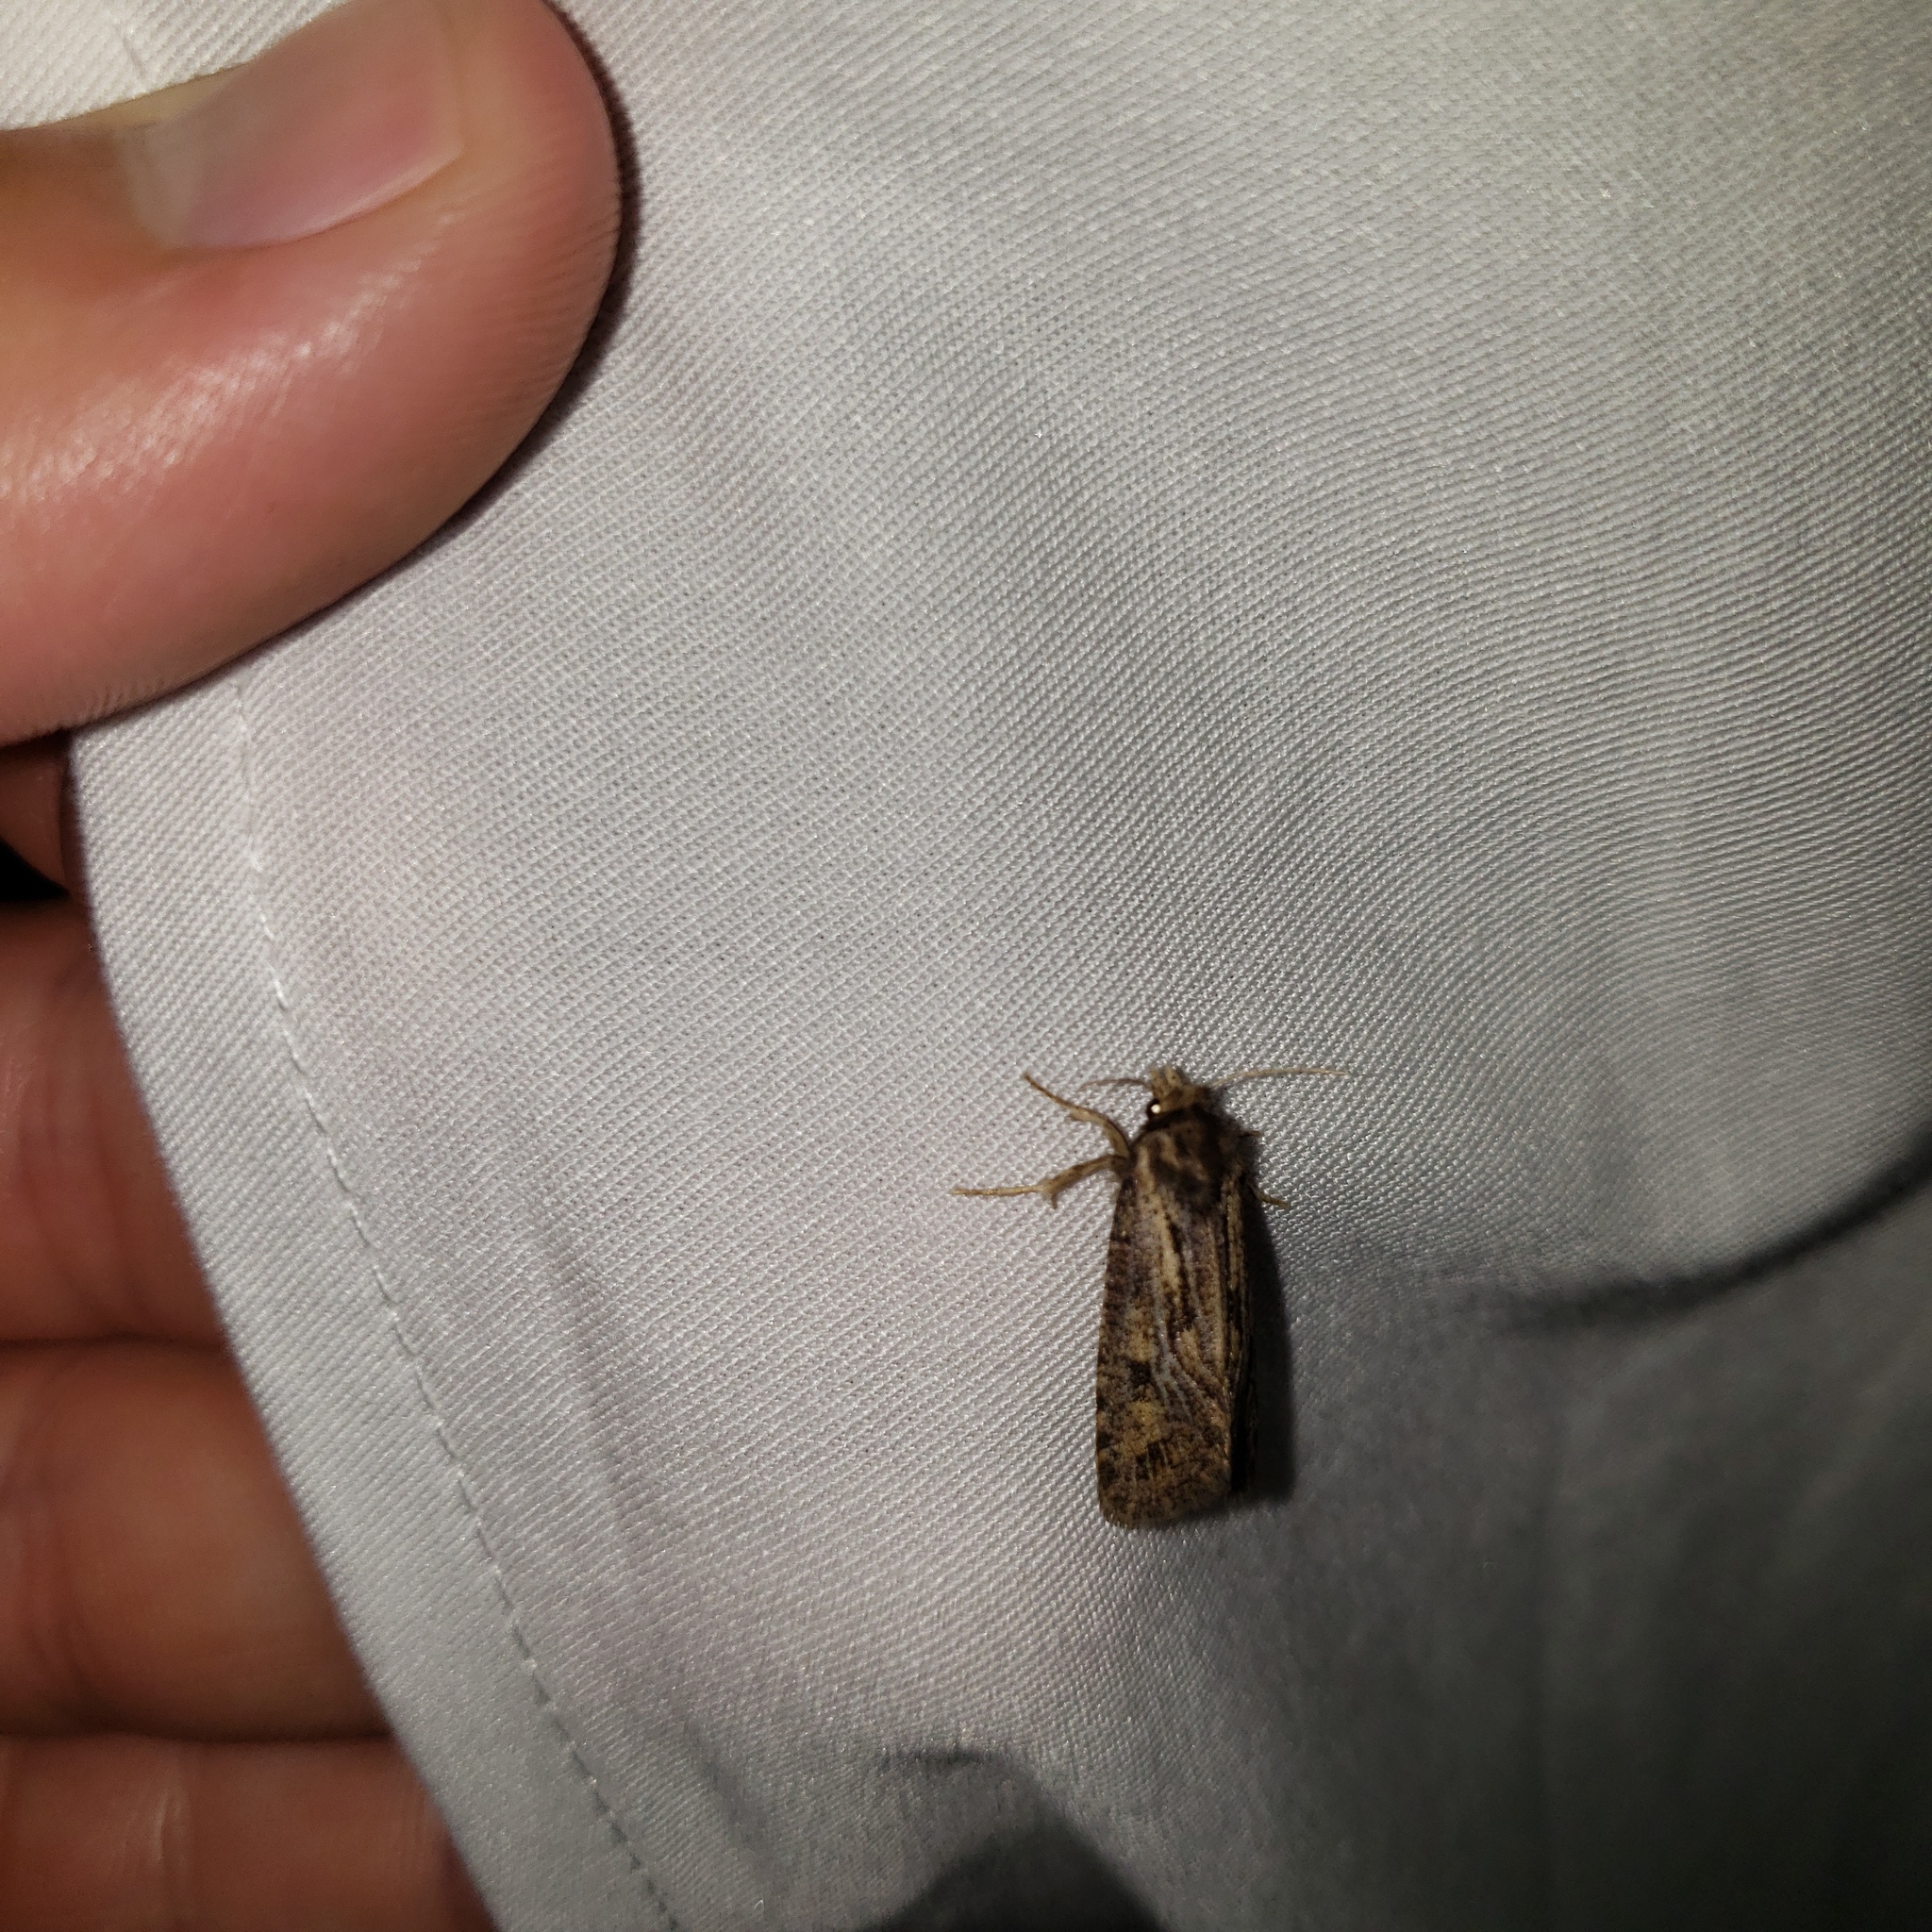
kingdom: Animalia
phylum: Arthropoda
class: Insecta
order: Lepidoptera
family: Tineidae
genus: Acrolophus
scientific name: Acrolophus popeanella
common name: Clemens' grass tubeworm moth
